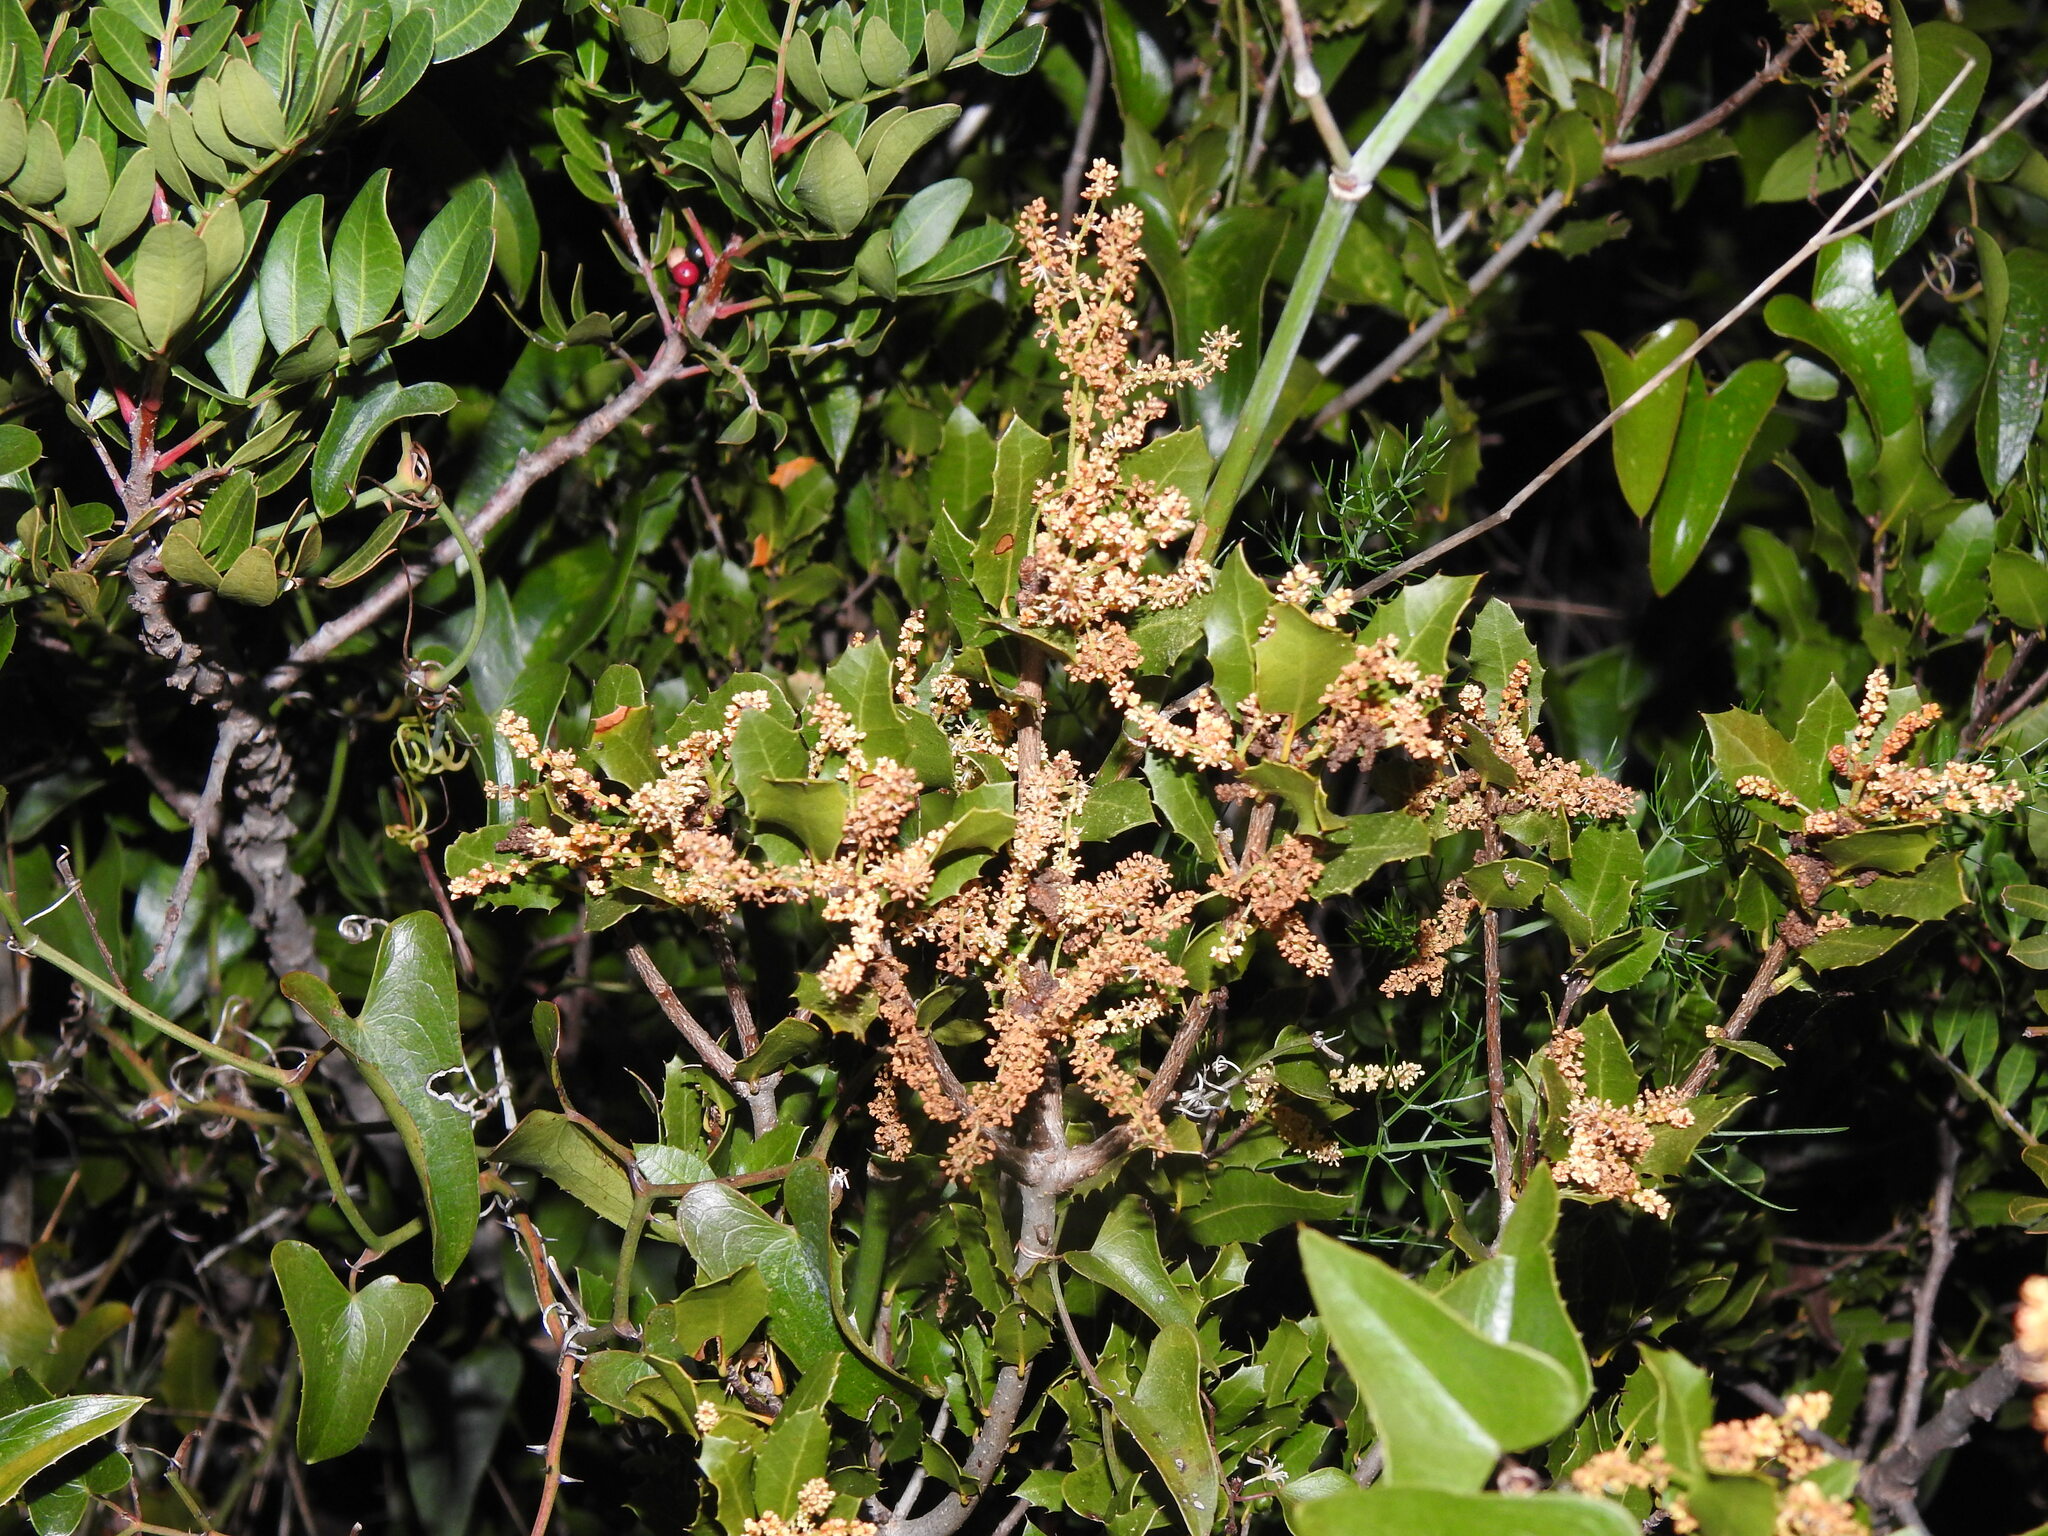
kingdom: Plantae
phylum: Tracheophyta
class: Magnoliopsida
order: Fagales
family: Fagaceae
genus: Quercus
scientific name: Quercus coccifera
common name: Kermes oak
